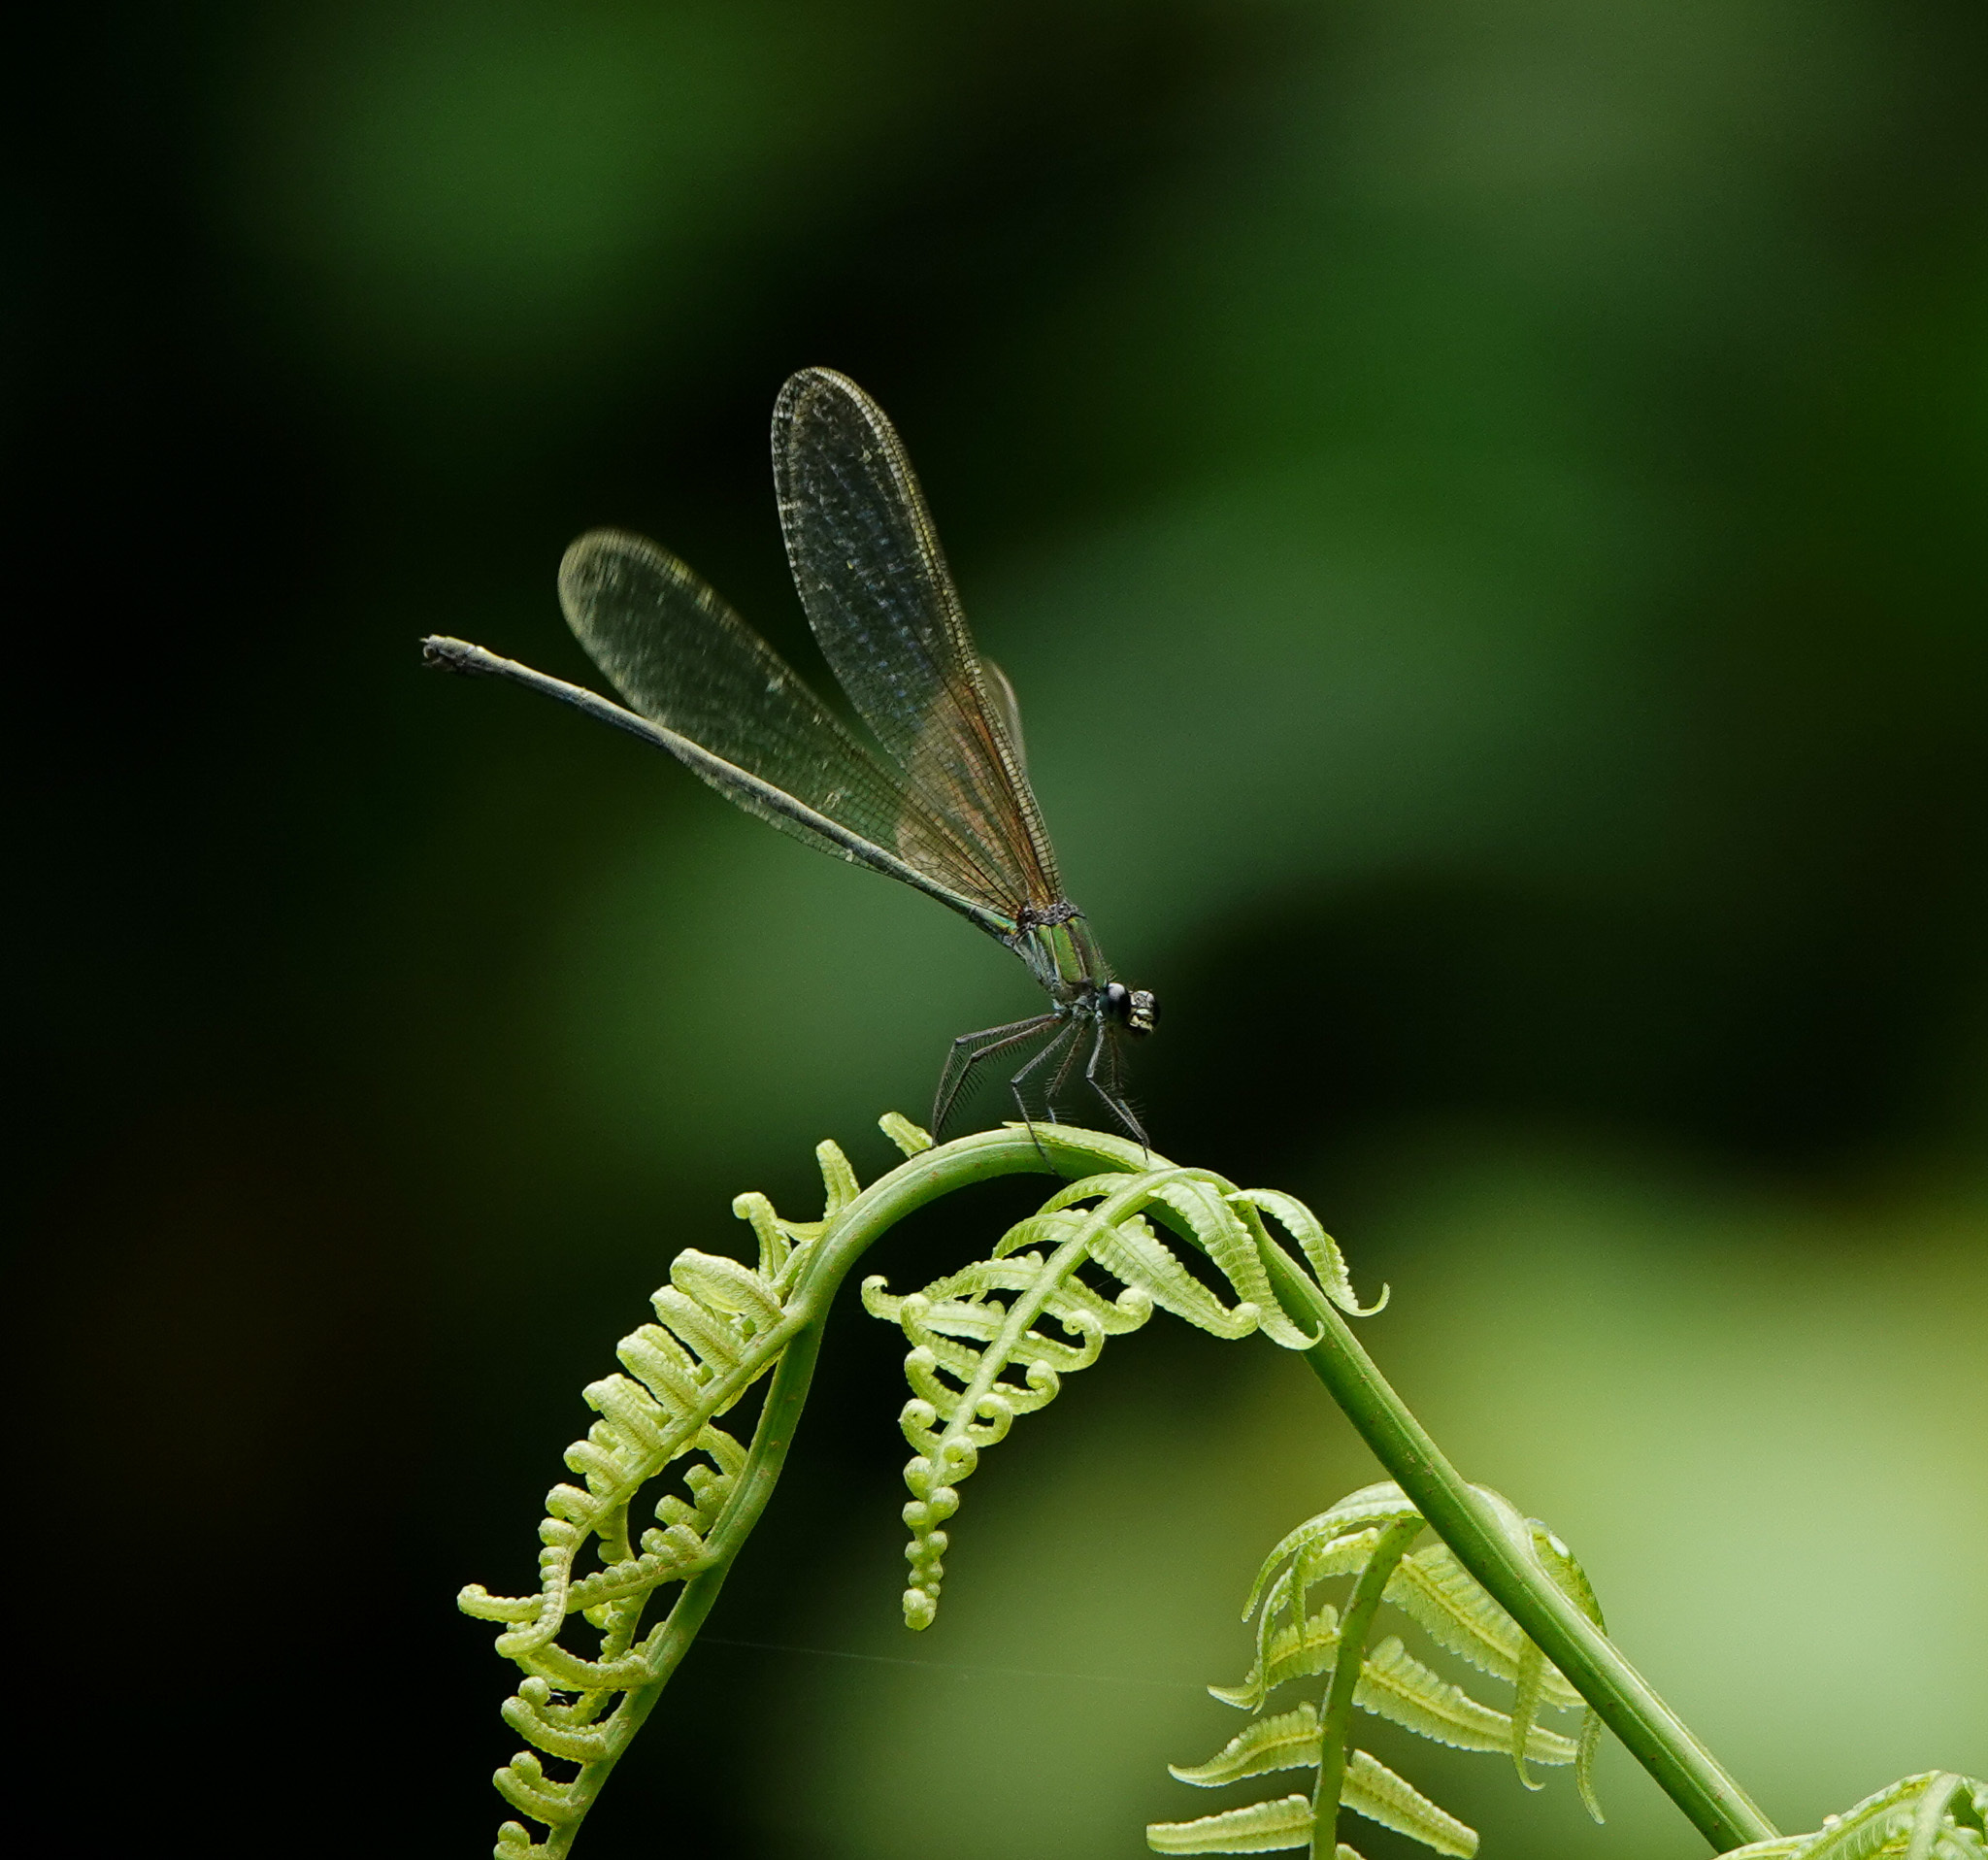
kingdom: Animalia
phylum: Arthropoda
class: Insecta
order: Odonata
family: Calopterygidae
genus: Vestalis
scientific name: Vestalis gracilis
